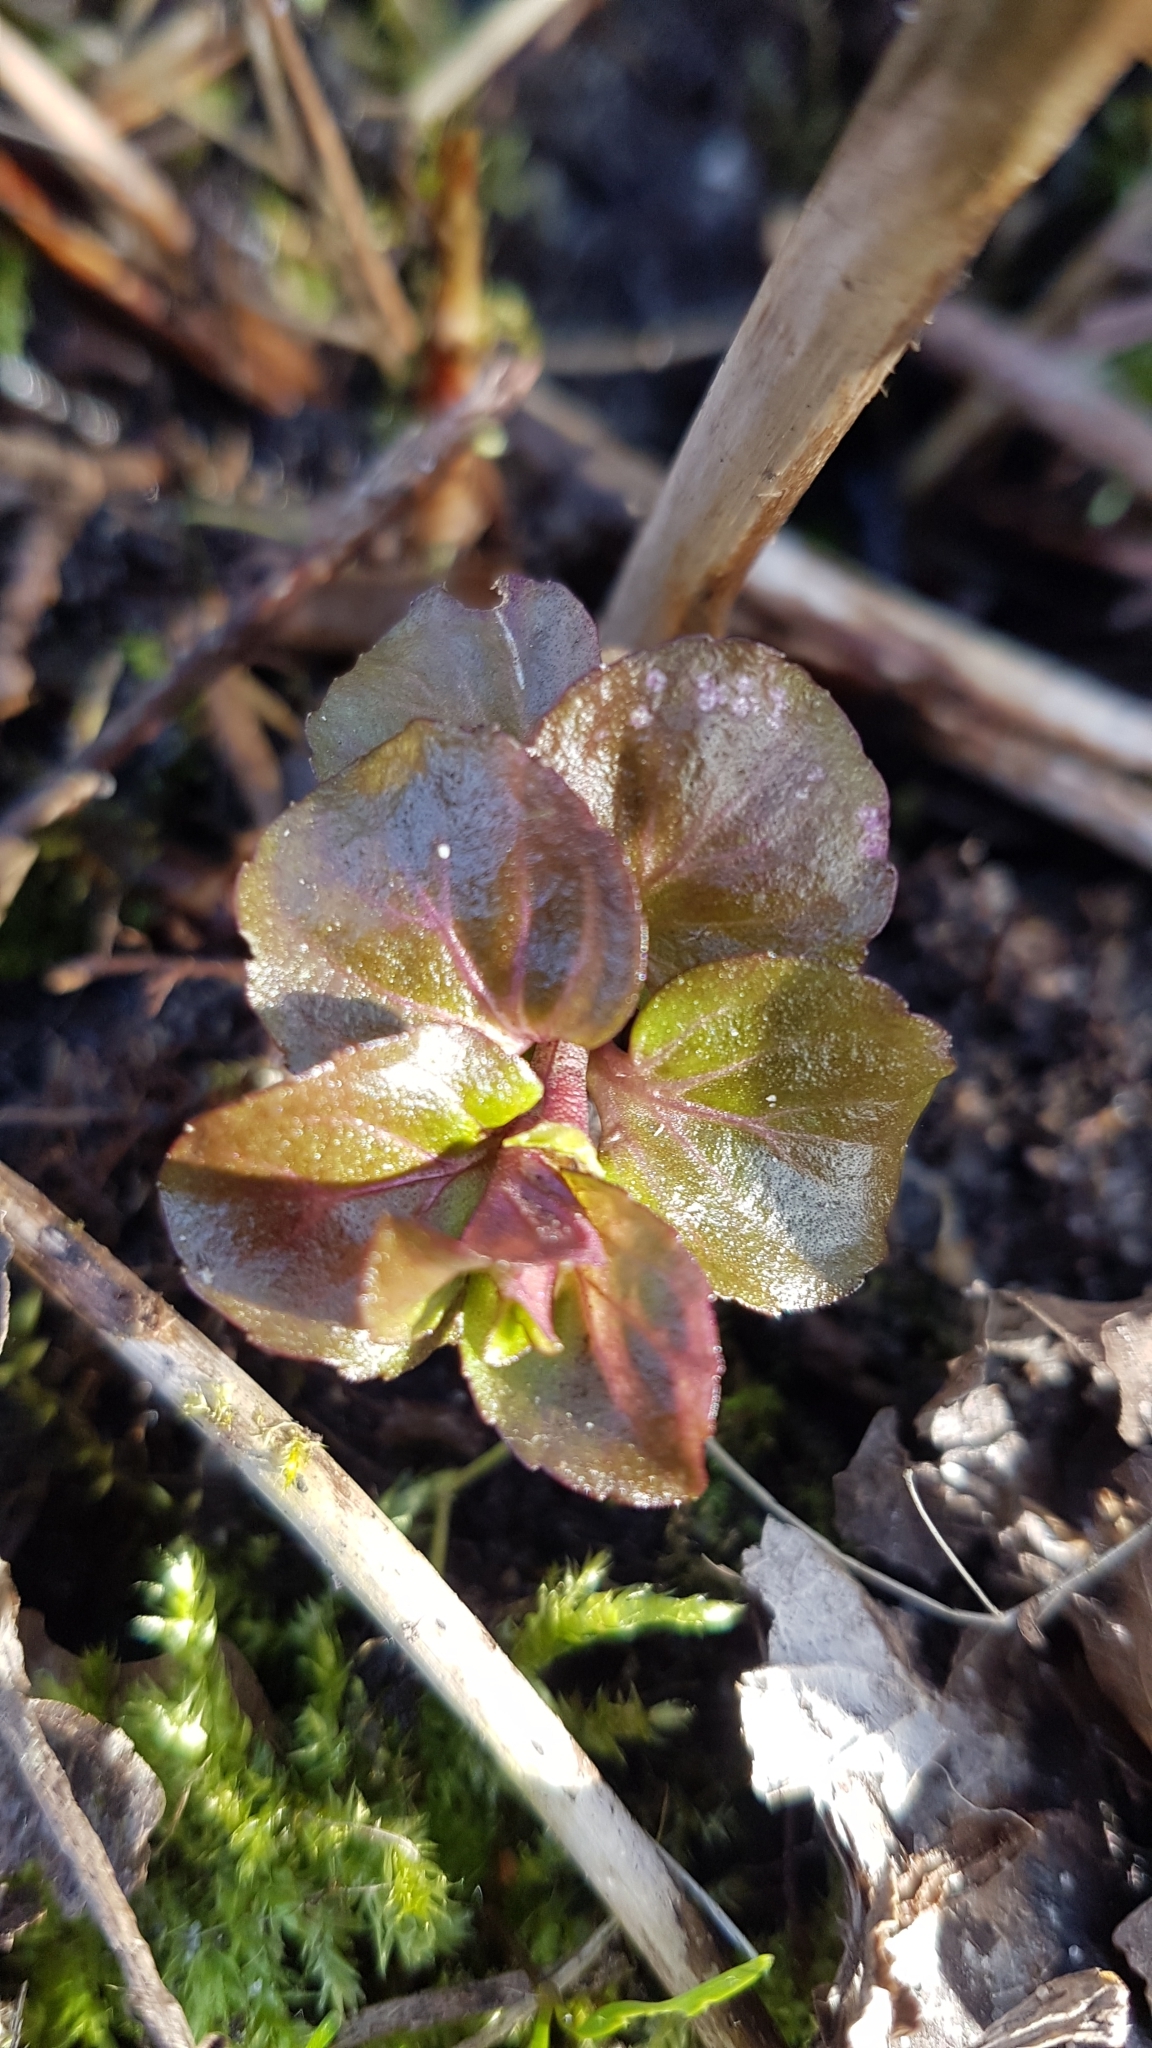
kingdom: Plantae
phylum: Tracheophyta
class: Magnoliopsida
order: Lamiales
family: Lamiaceae
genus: Mentha
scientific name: Mentha aquatica
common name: Water mint
